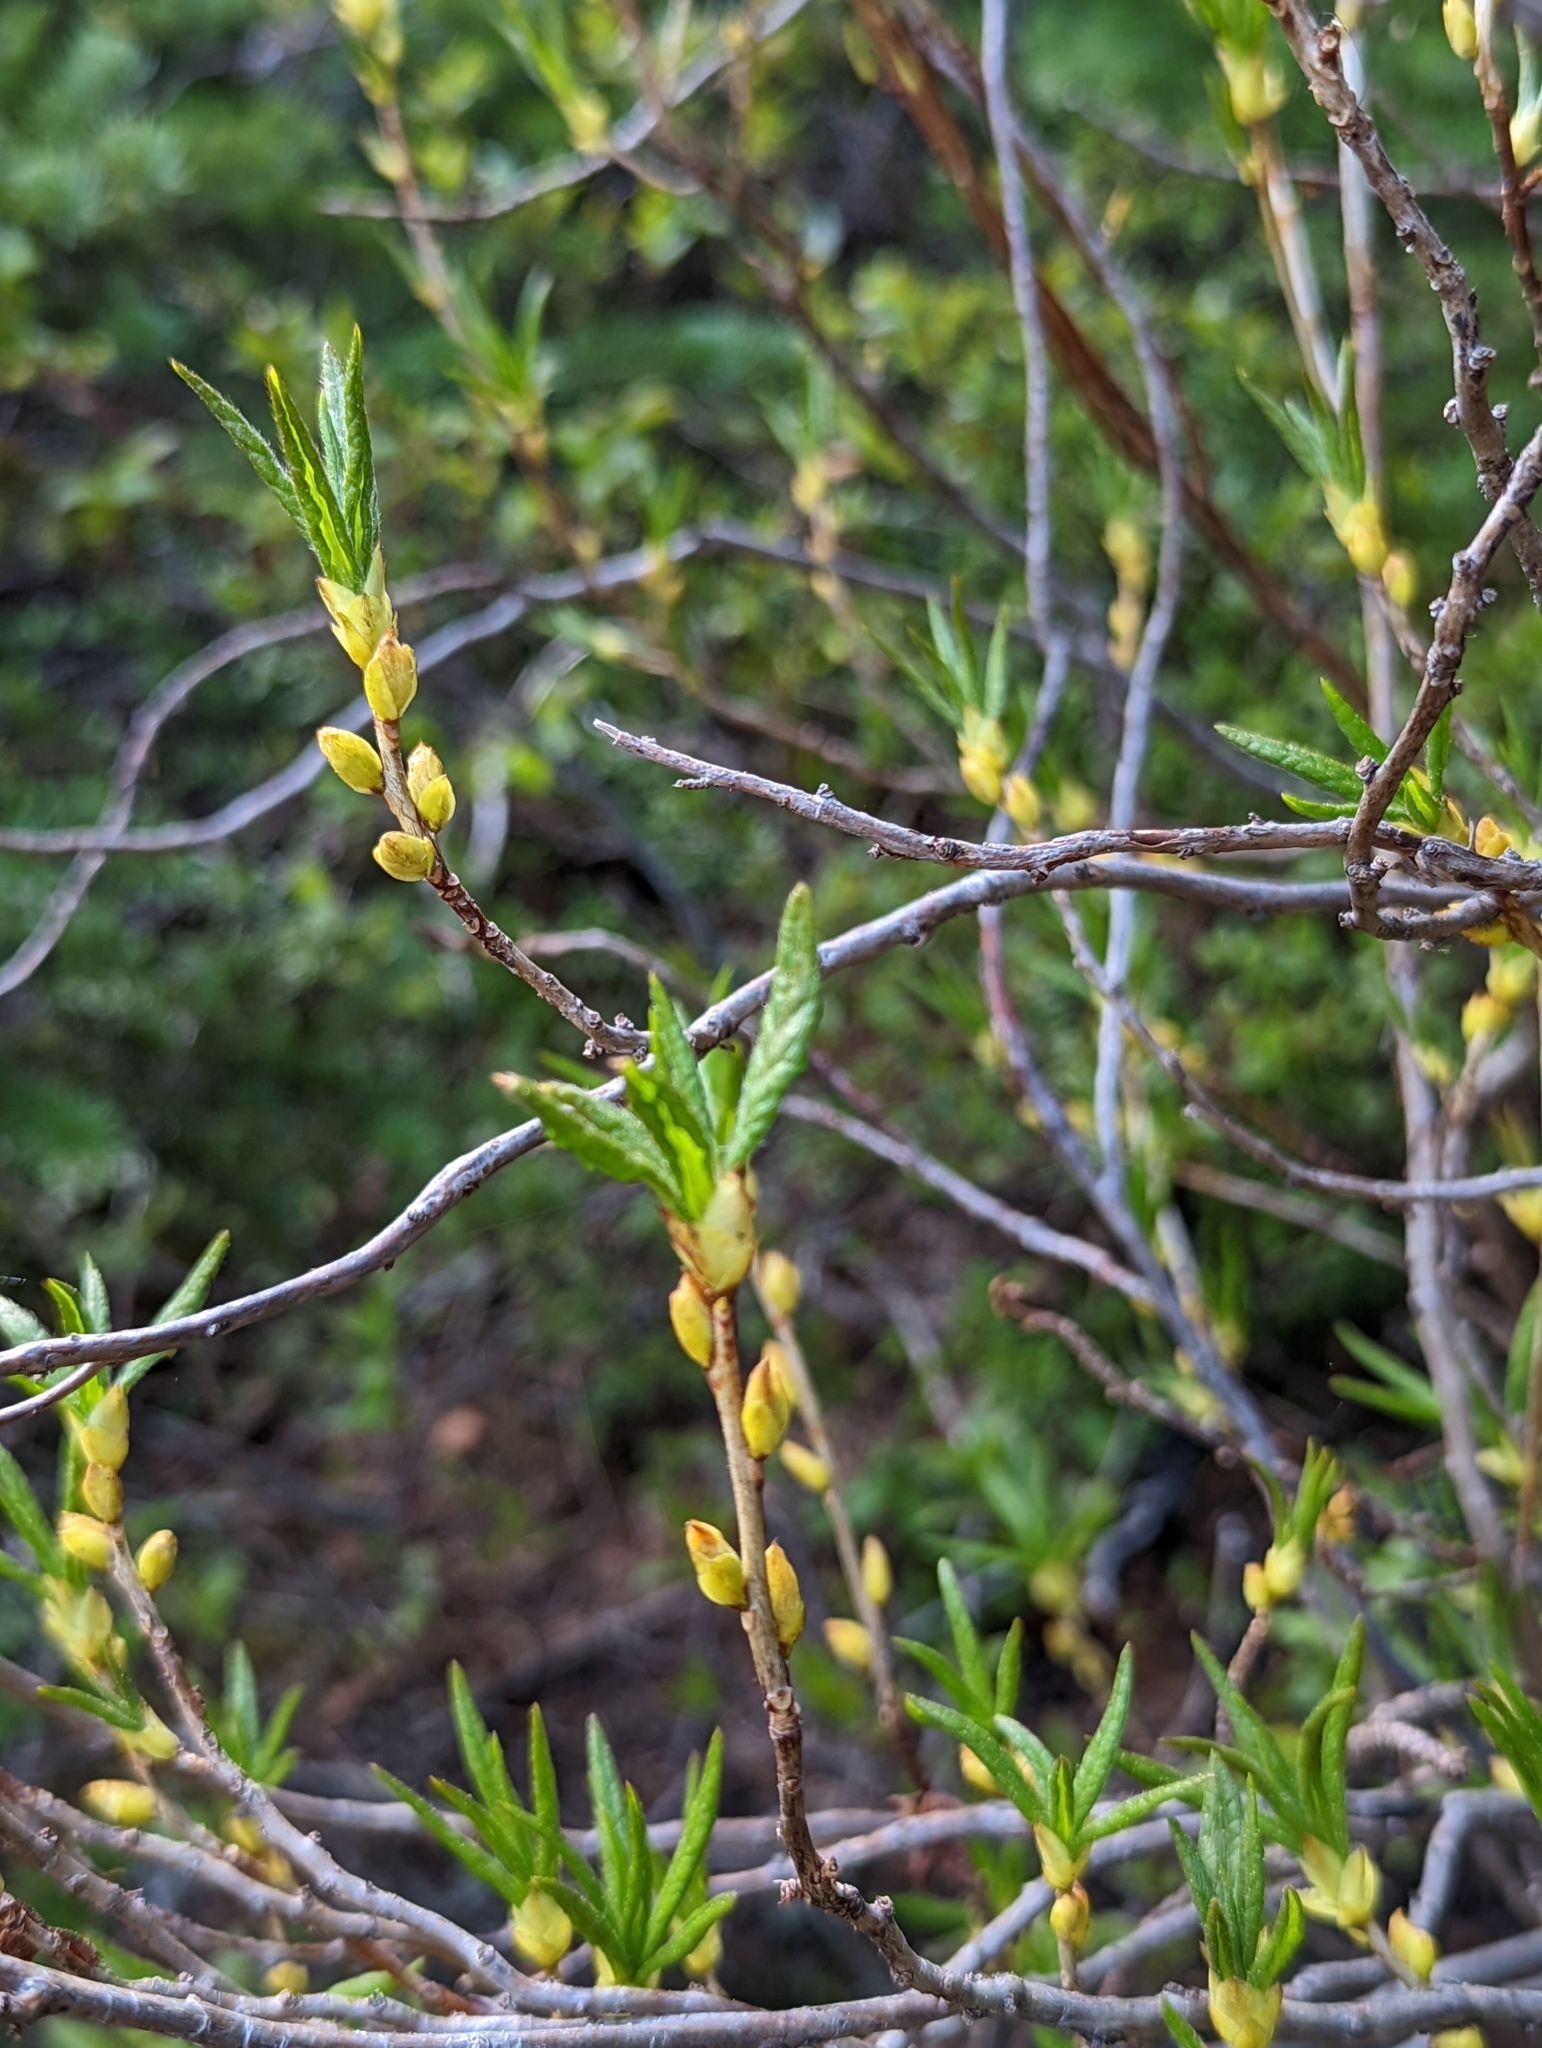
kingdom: Plantae
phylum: Tracheophyta
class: Magnoliopsida
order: Ericales
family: Ericaceae
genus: Rhododendron
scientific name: Rhododendron albiflorum
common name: White rhododendron
